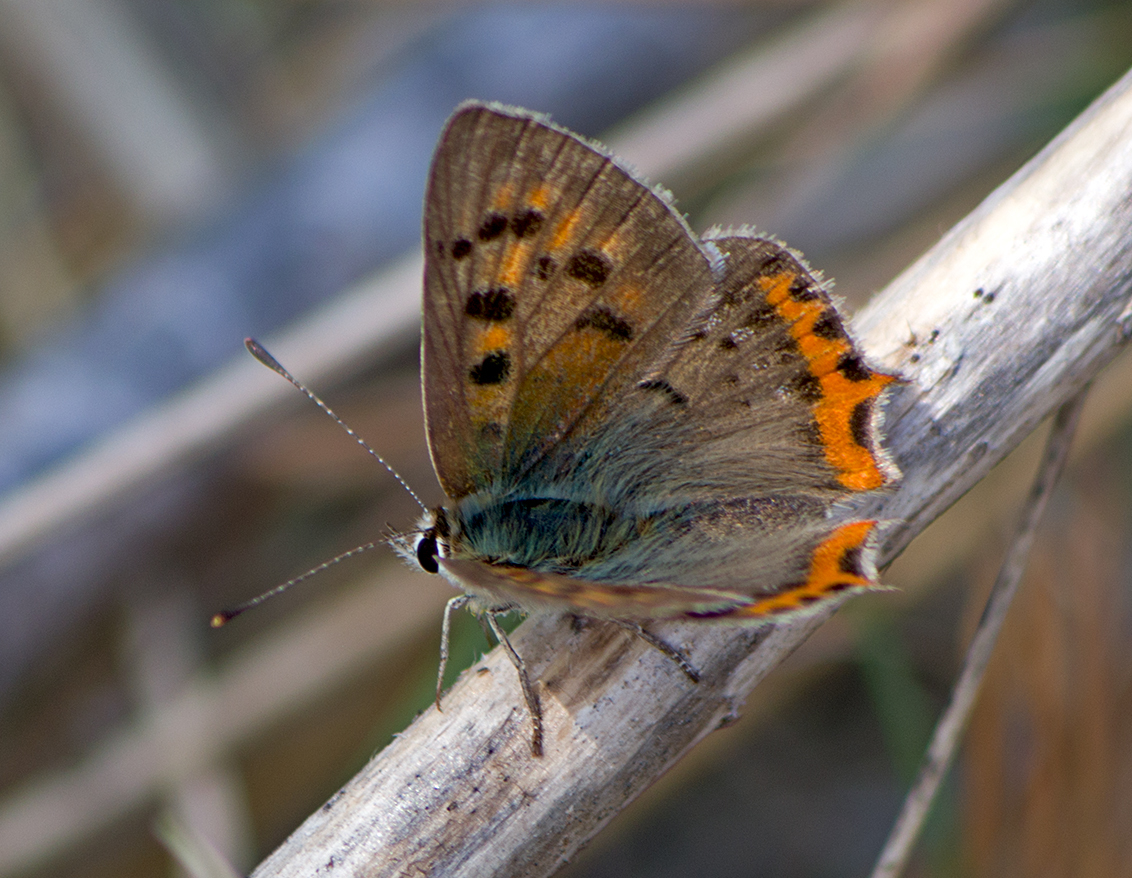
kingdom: Animalia
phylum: Arthropoda
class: Insecta
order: Lepidoptera
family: Lycaenidae
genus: Lycaena
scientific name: Lycaena phlaeas
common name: Small copper
